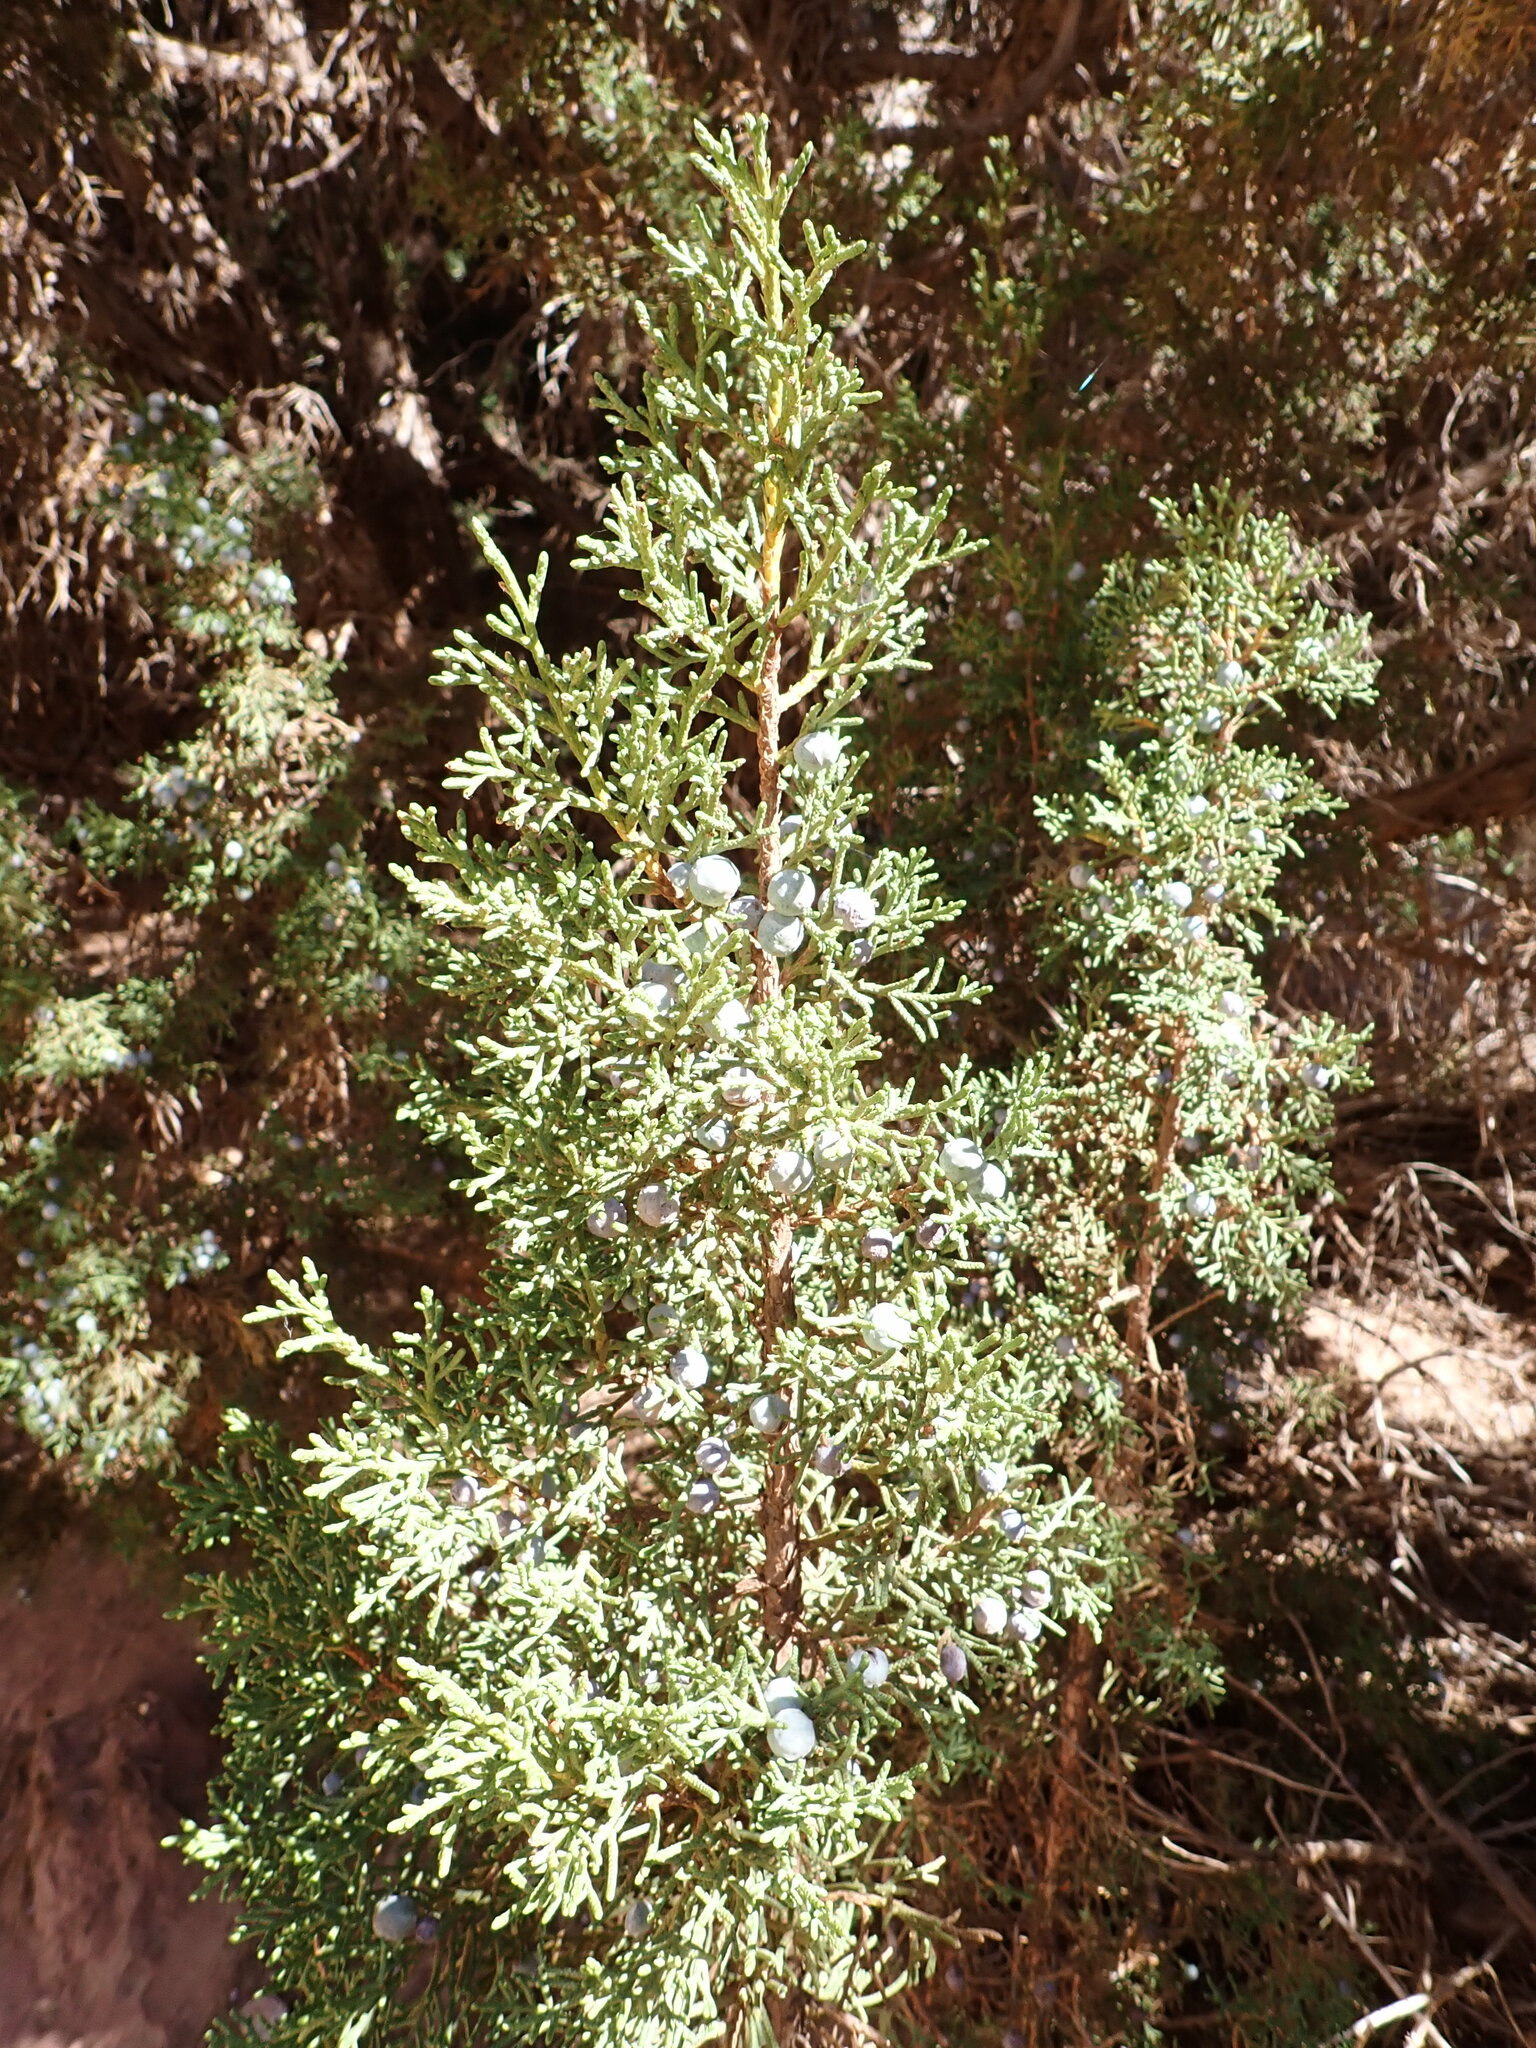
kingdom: Plantae
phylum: Tracheophyta
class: Pinopsida
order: Pinales
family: Cupressaceae
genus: Juniperus
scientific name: Juniperus osteosperma
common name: Utah juniper
